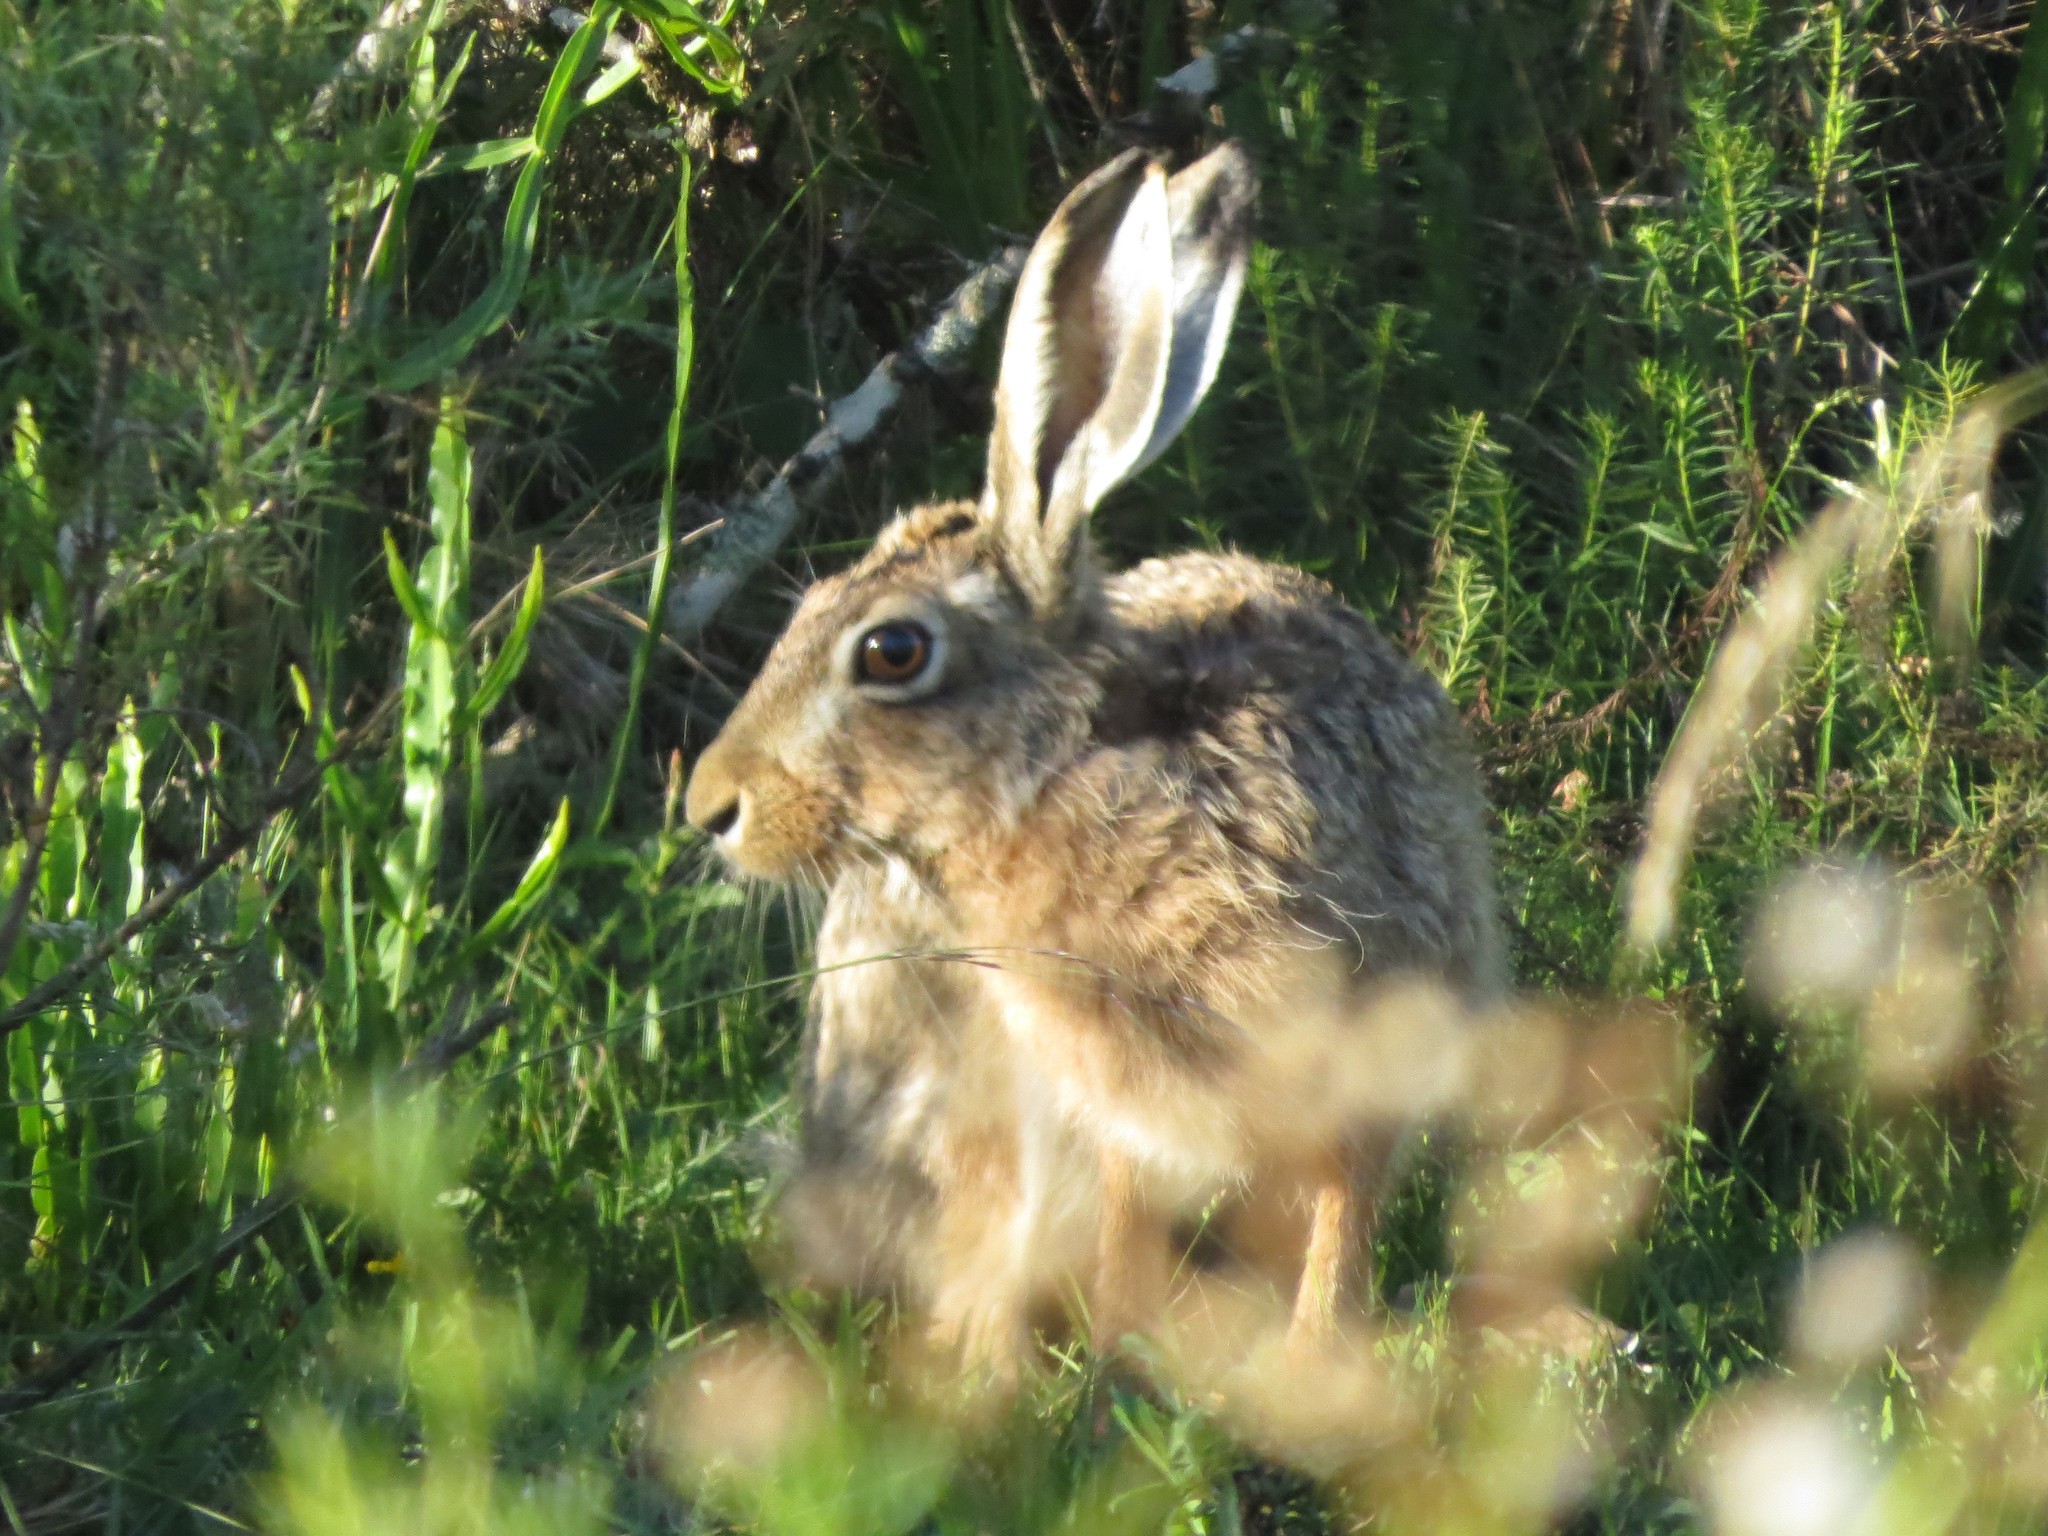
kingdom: Animalia
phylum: Chordata
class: Mammalia
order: Lagomorpha
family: Leporidae
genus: Lepus
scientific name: Lepus europaeus
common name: European hare
